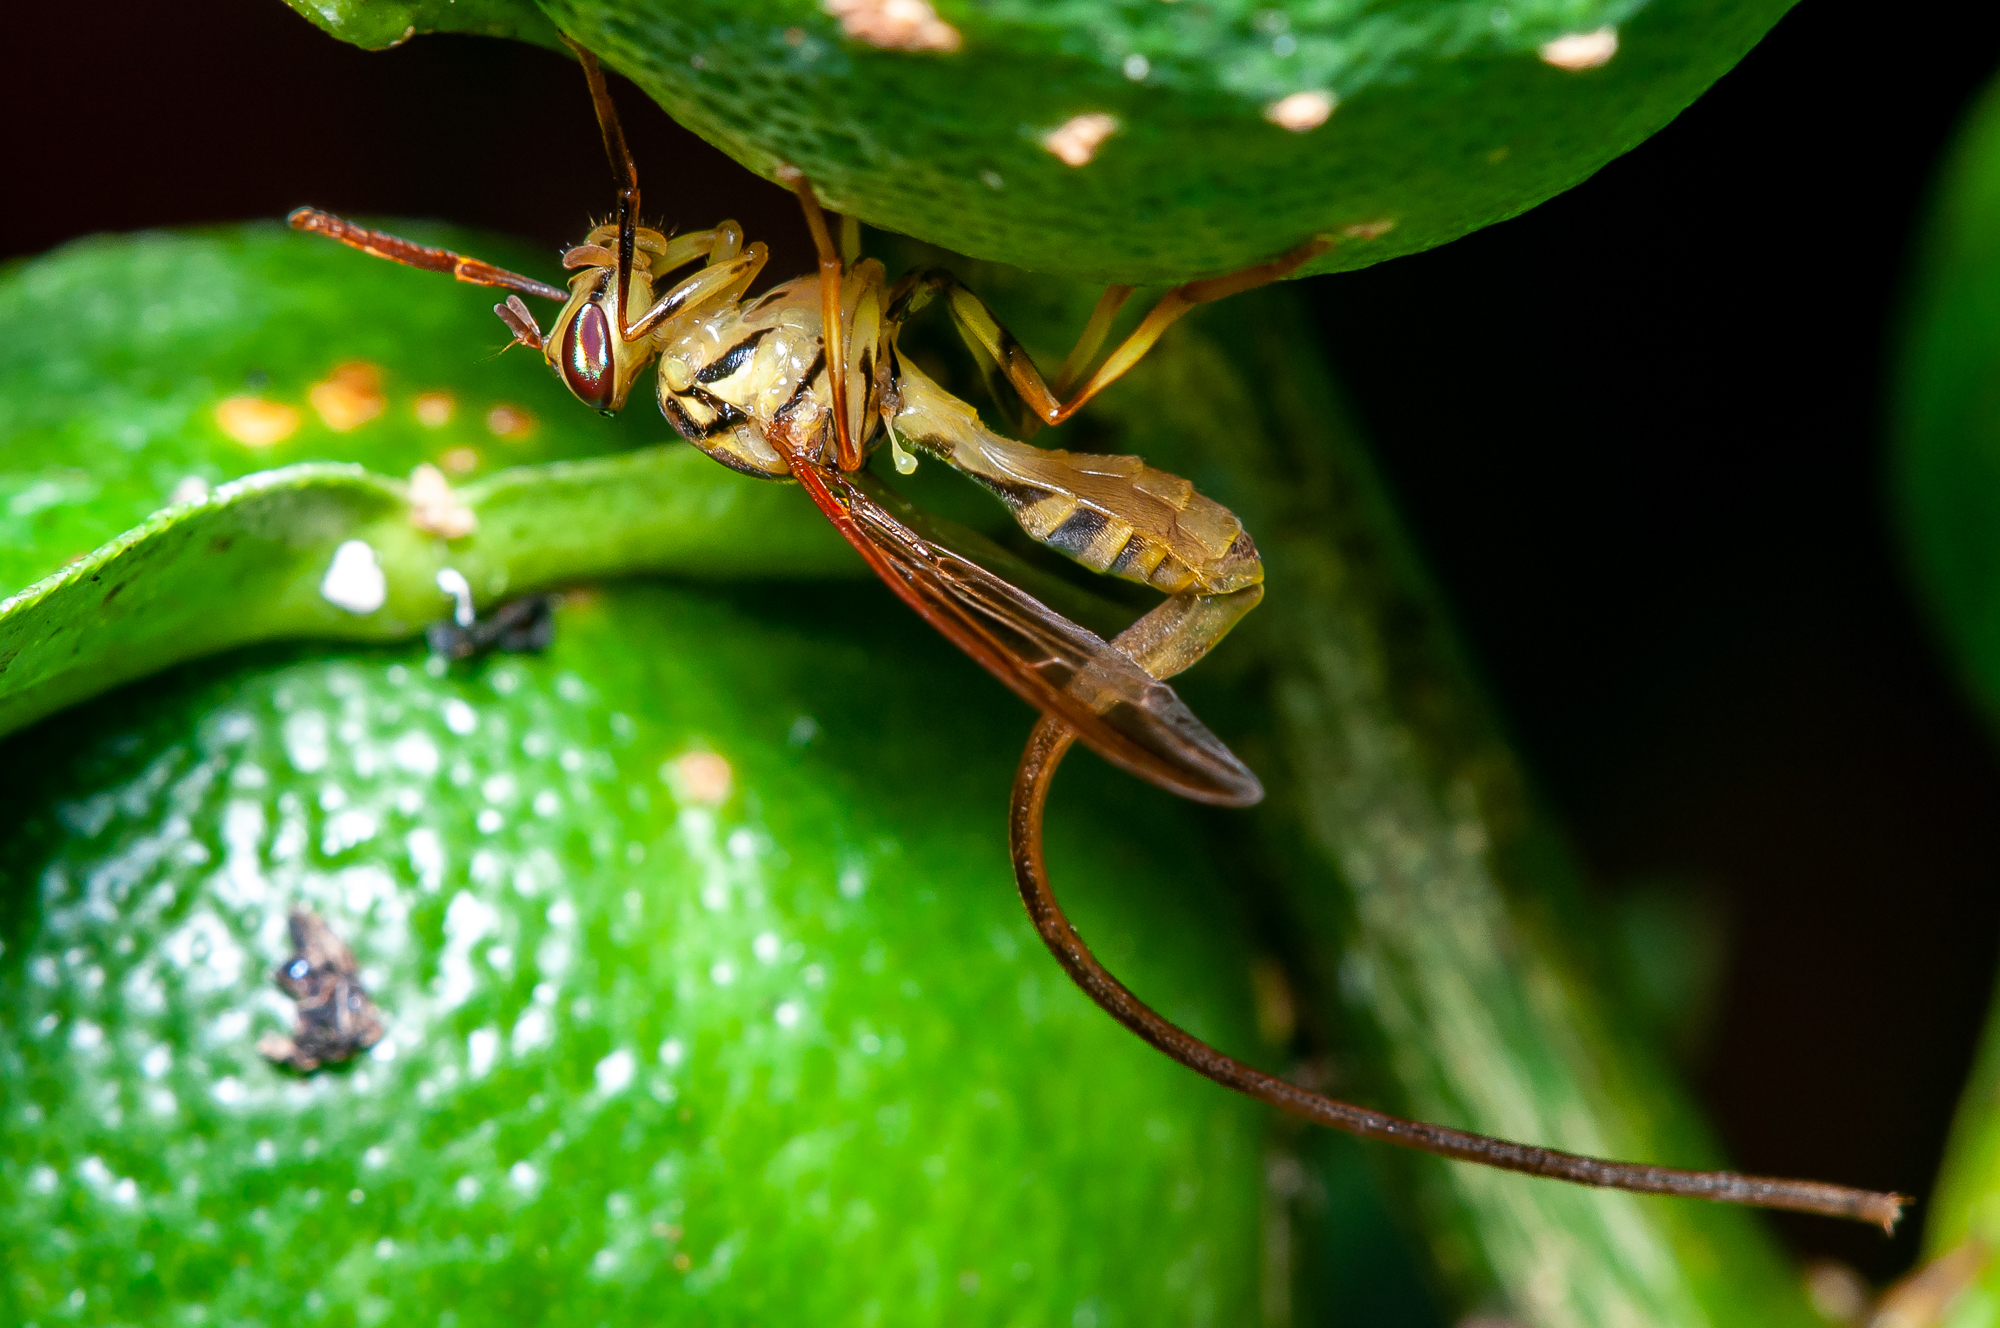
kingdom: Animalia
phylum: Arthropoda
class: Insecta
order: Diptera
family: Tephritidae
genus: Anastrepha
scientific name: Anastrepha curvicauda
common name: Papaya fruit fly
